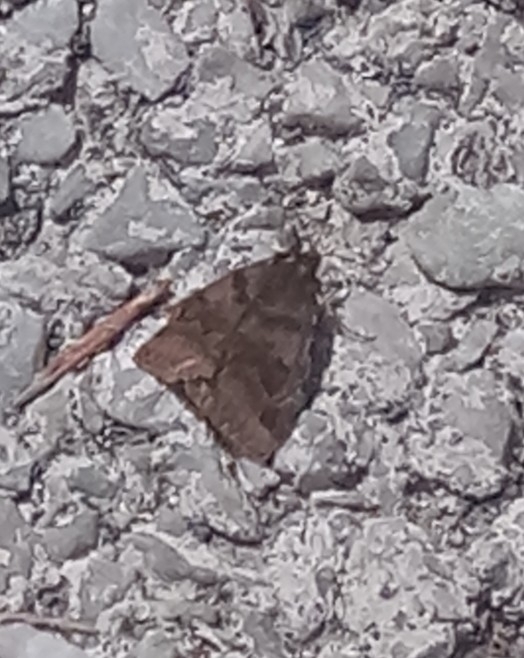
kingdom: Animalia
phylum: Arthropoda
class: Insecta
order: Lepidoptera
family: Erebidae
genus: Euclidia
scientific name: Euclidia glyphica
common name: Burnet companion
